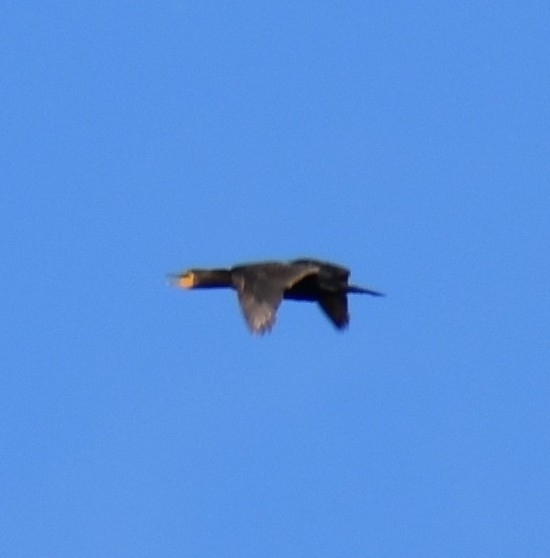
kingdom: Animalia
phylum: Chordata
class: Aves
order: Suliformes
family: Phalacrocoracidae
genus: Phalacrocorax
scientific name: Phalacrocorax auritus
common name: Double-crested cormorant
